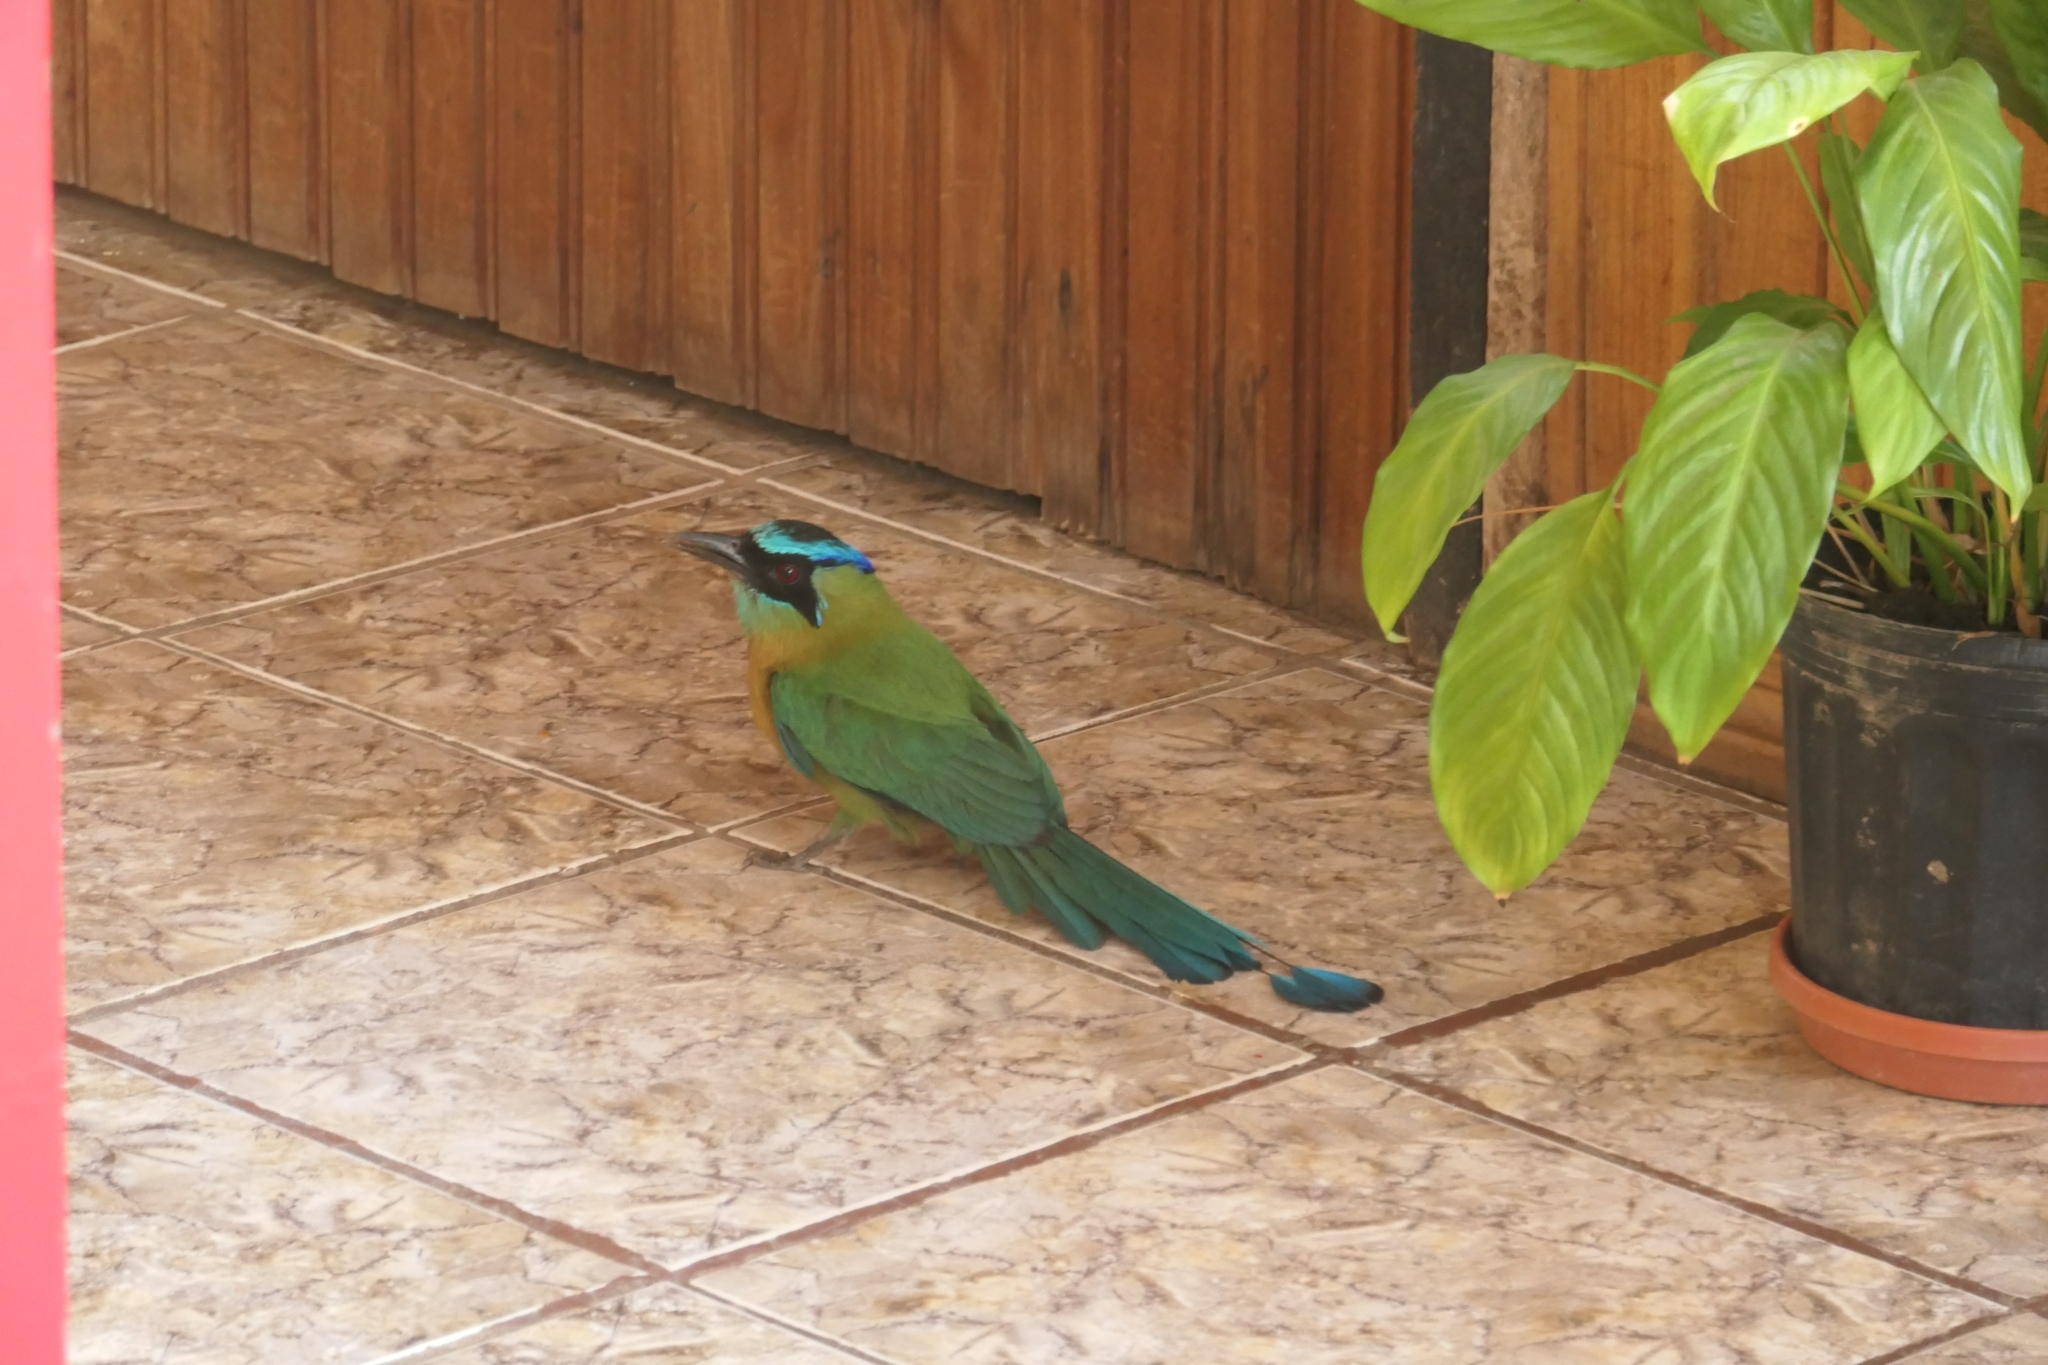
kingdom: Animalia
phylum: Chordata
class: Aves
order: Coraciiformes
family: Momotidae
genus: Momotus
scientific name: Momotus lessonii
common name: Lesson's motmot
